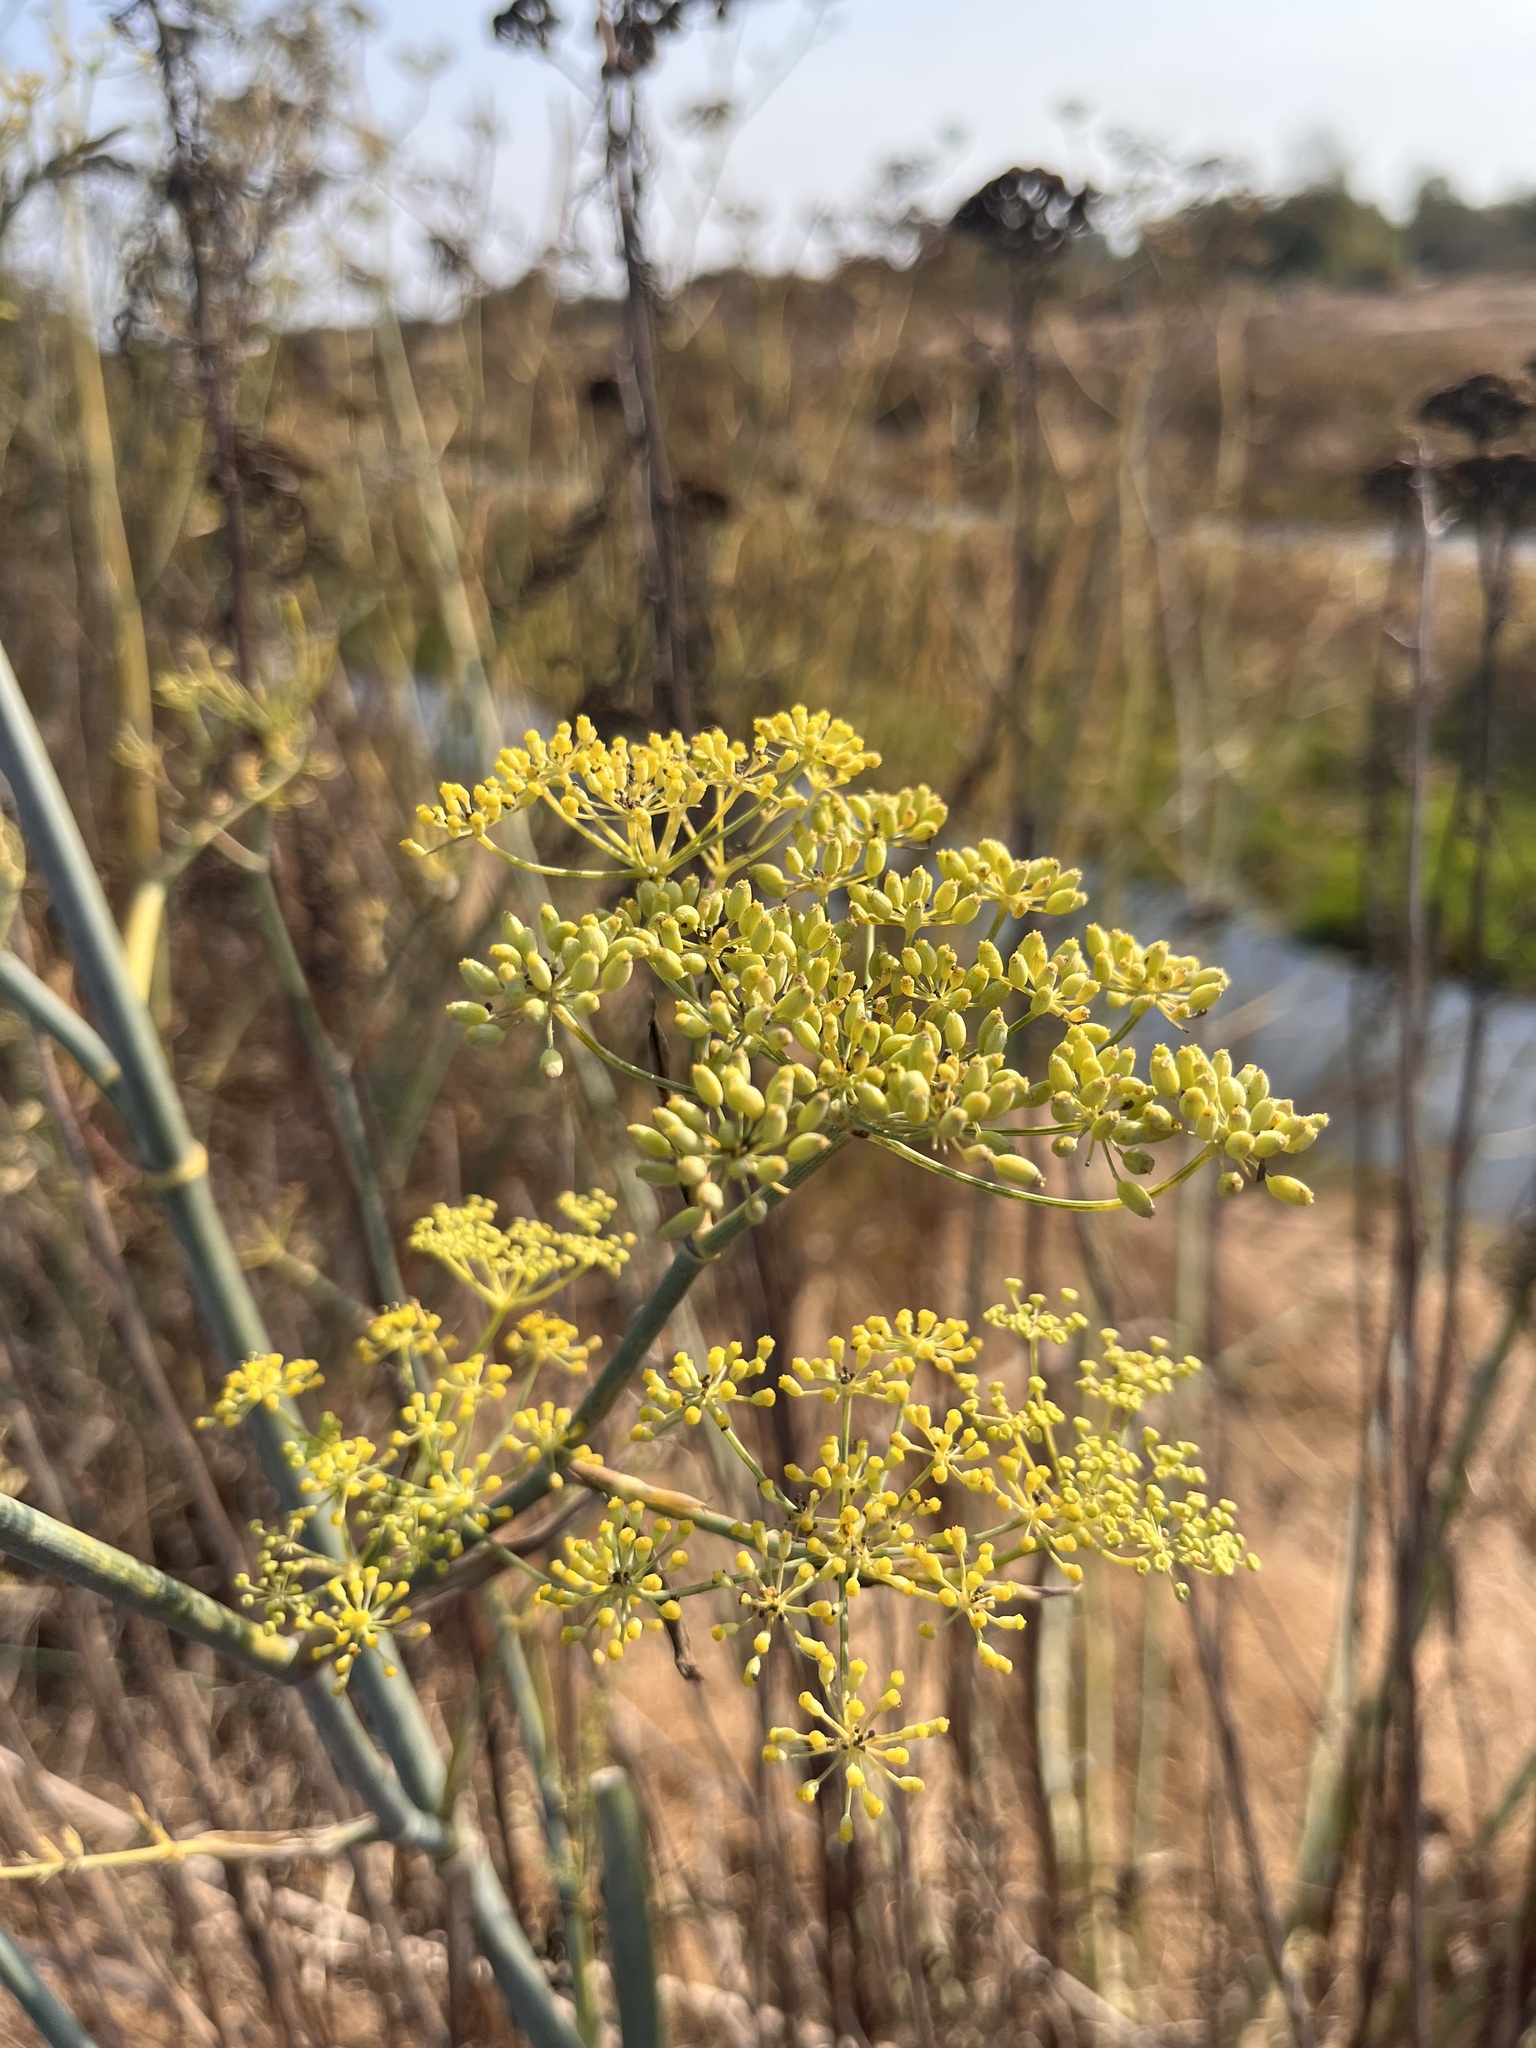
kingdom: Plantae
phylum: Tracheophyta
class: Magnoliopsida
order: Apiales
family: Apiaceae
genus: Foeniculum
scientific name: Foeniculum vulgare
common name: Fennel
